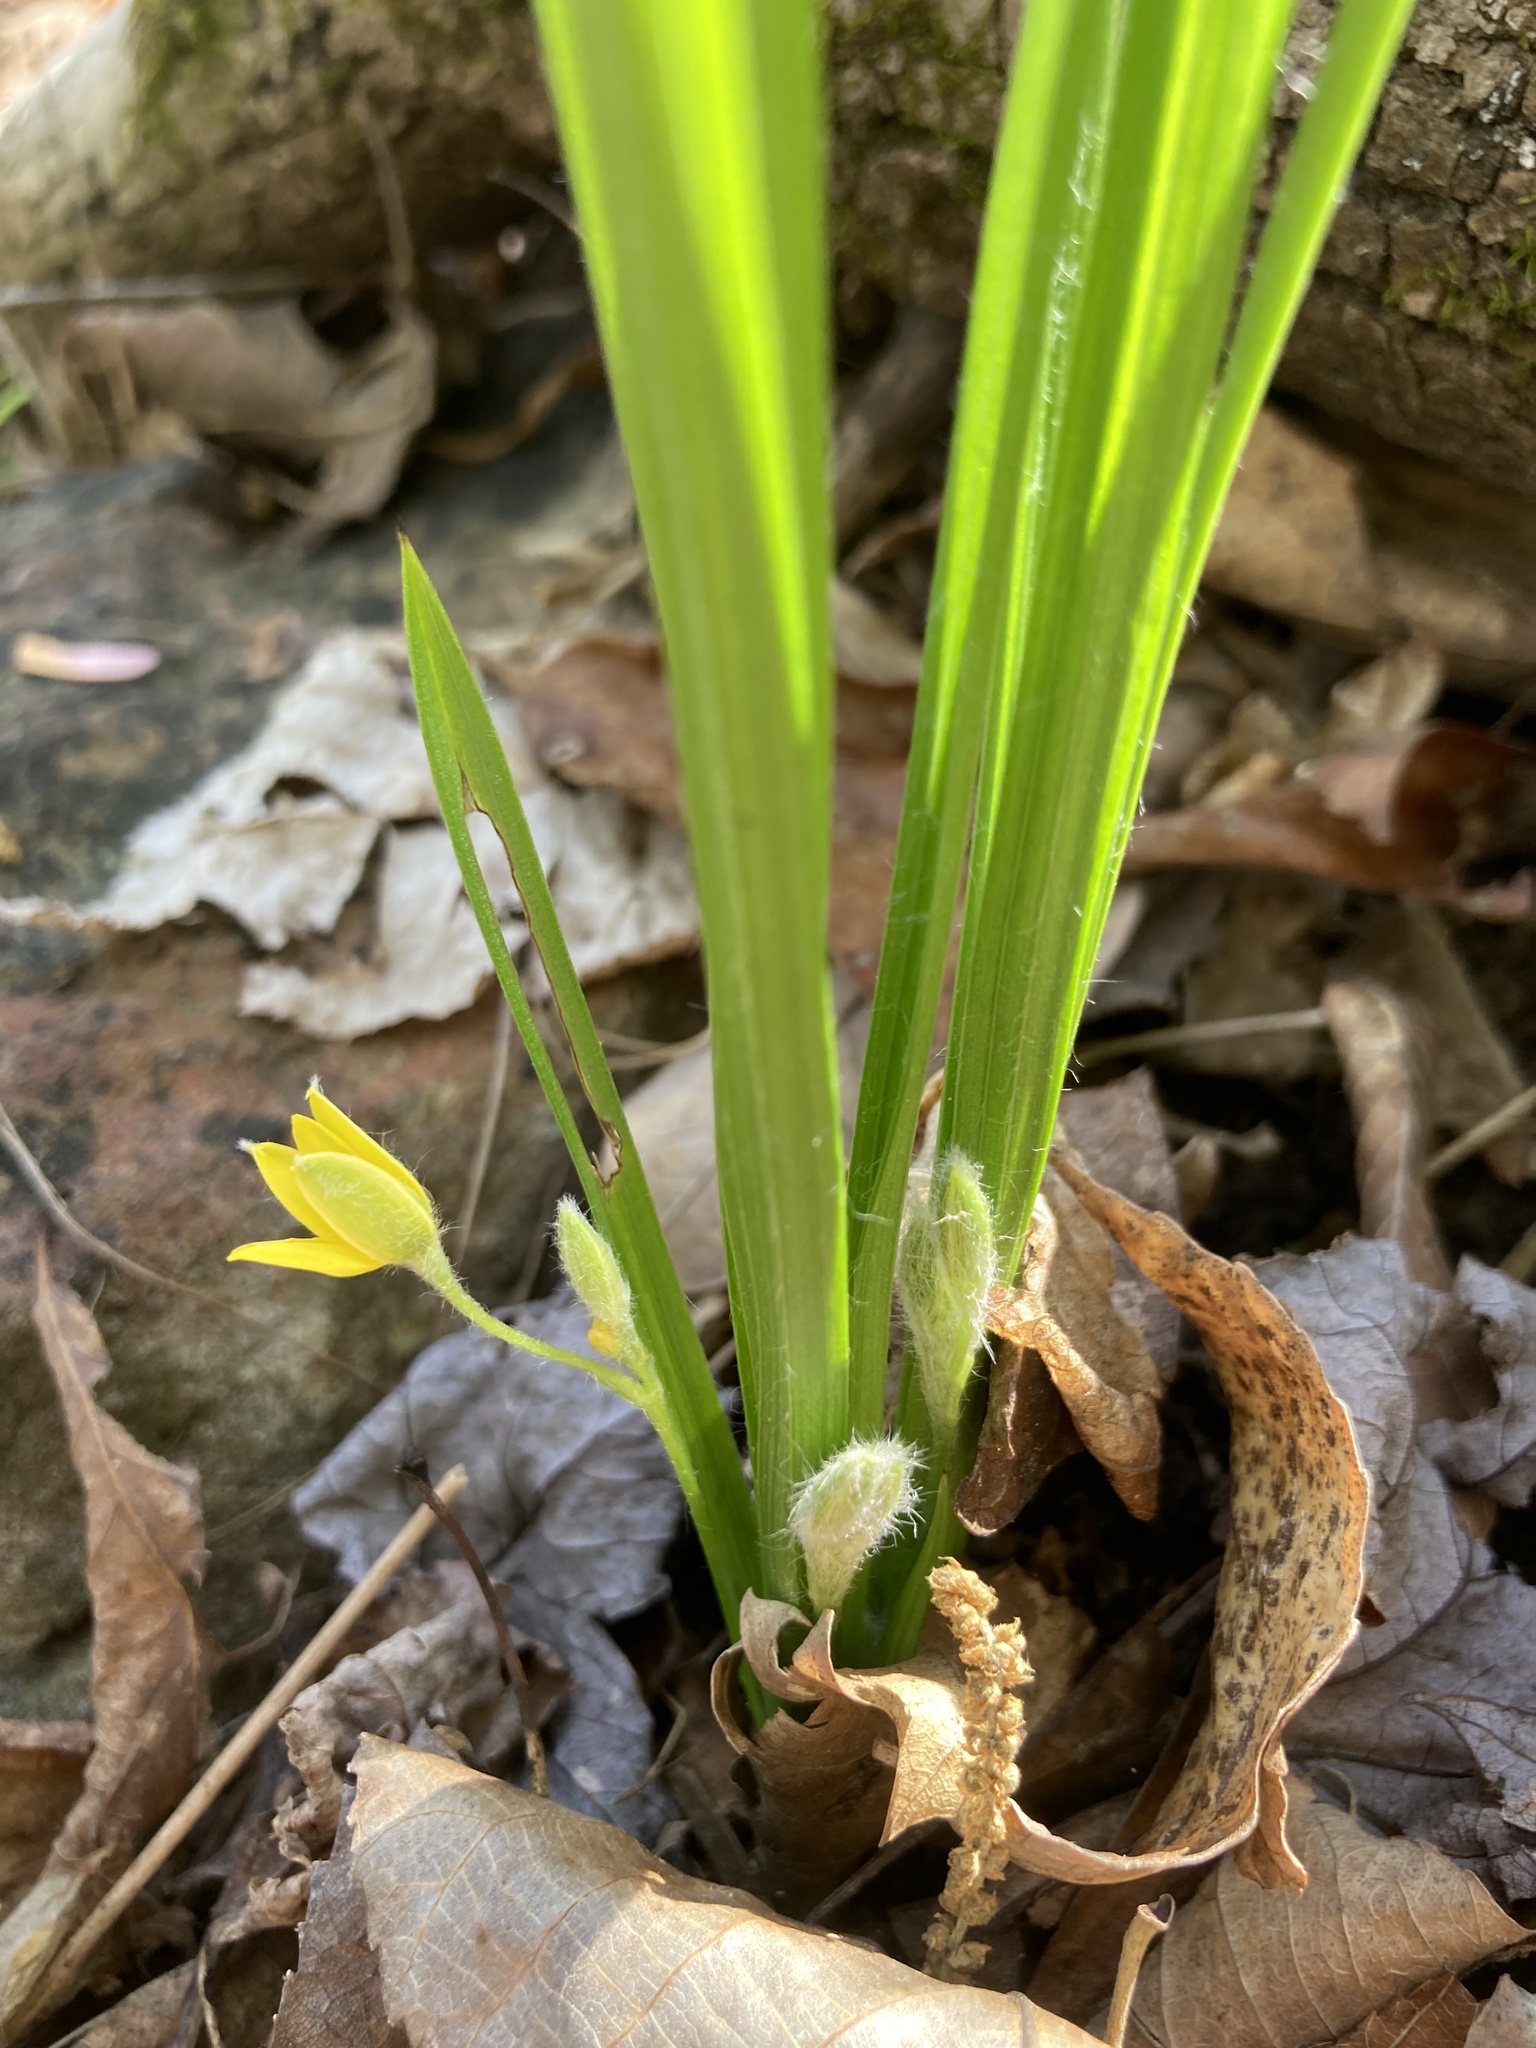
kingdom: Plantae
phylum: Tracheophyta
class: Liliopsida
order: Asparagales
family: Hypoxidaceae
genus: Hypoxis
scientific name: Hypoxis hirsuta
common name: Common goldstar
